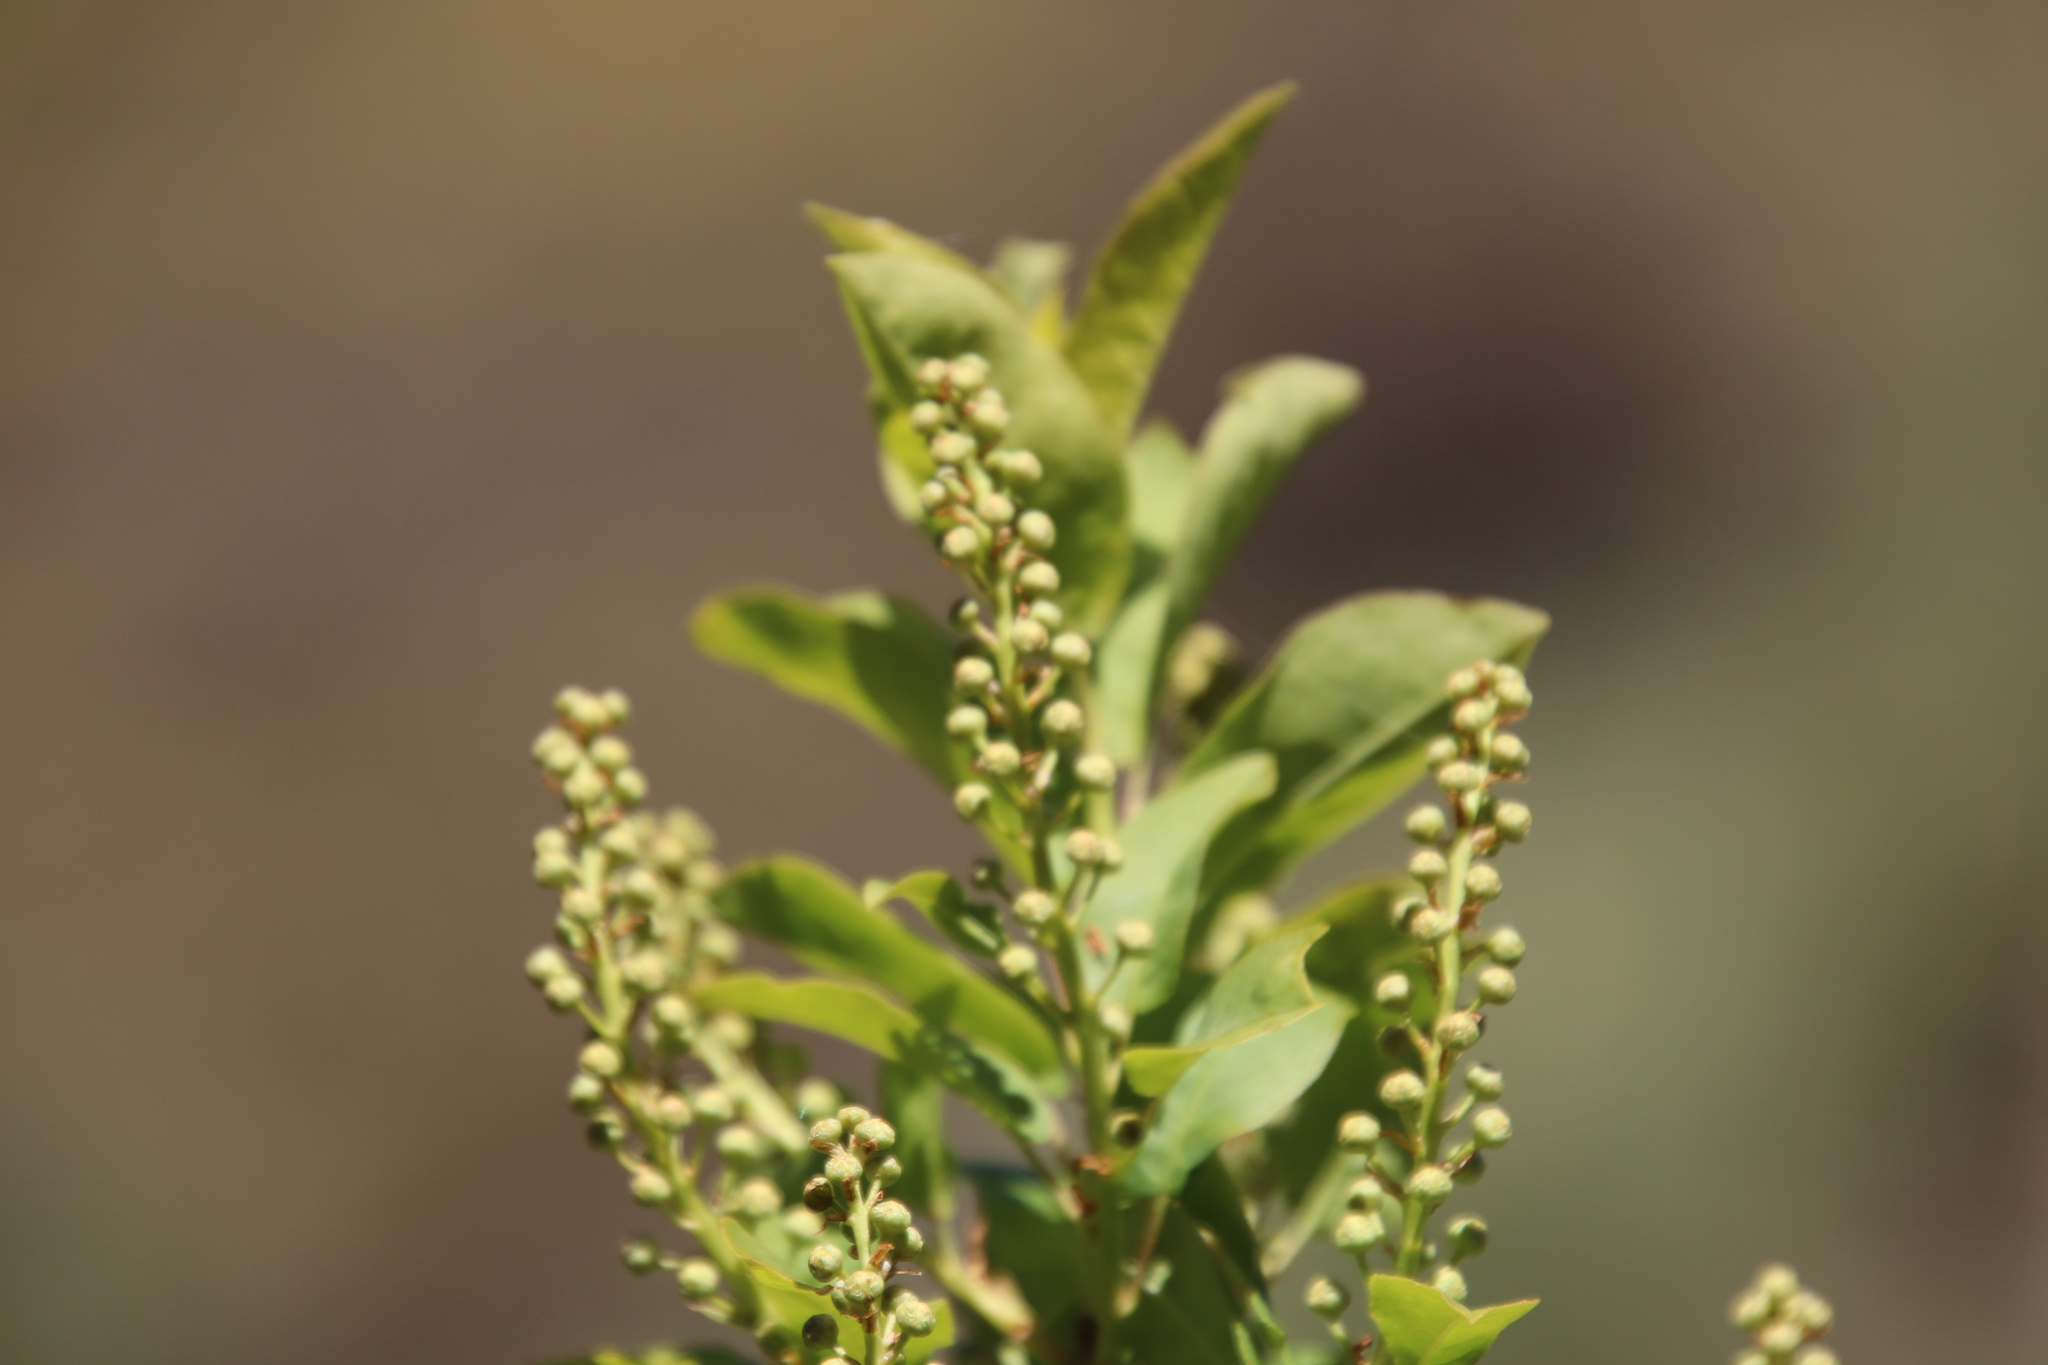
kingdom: Plantae
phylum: Tracheophyta
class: Magnoliopsida
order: Rosales
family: Rosaceae
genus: Prunus
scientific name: Prunus virginiana
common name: Chokecherry
